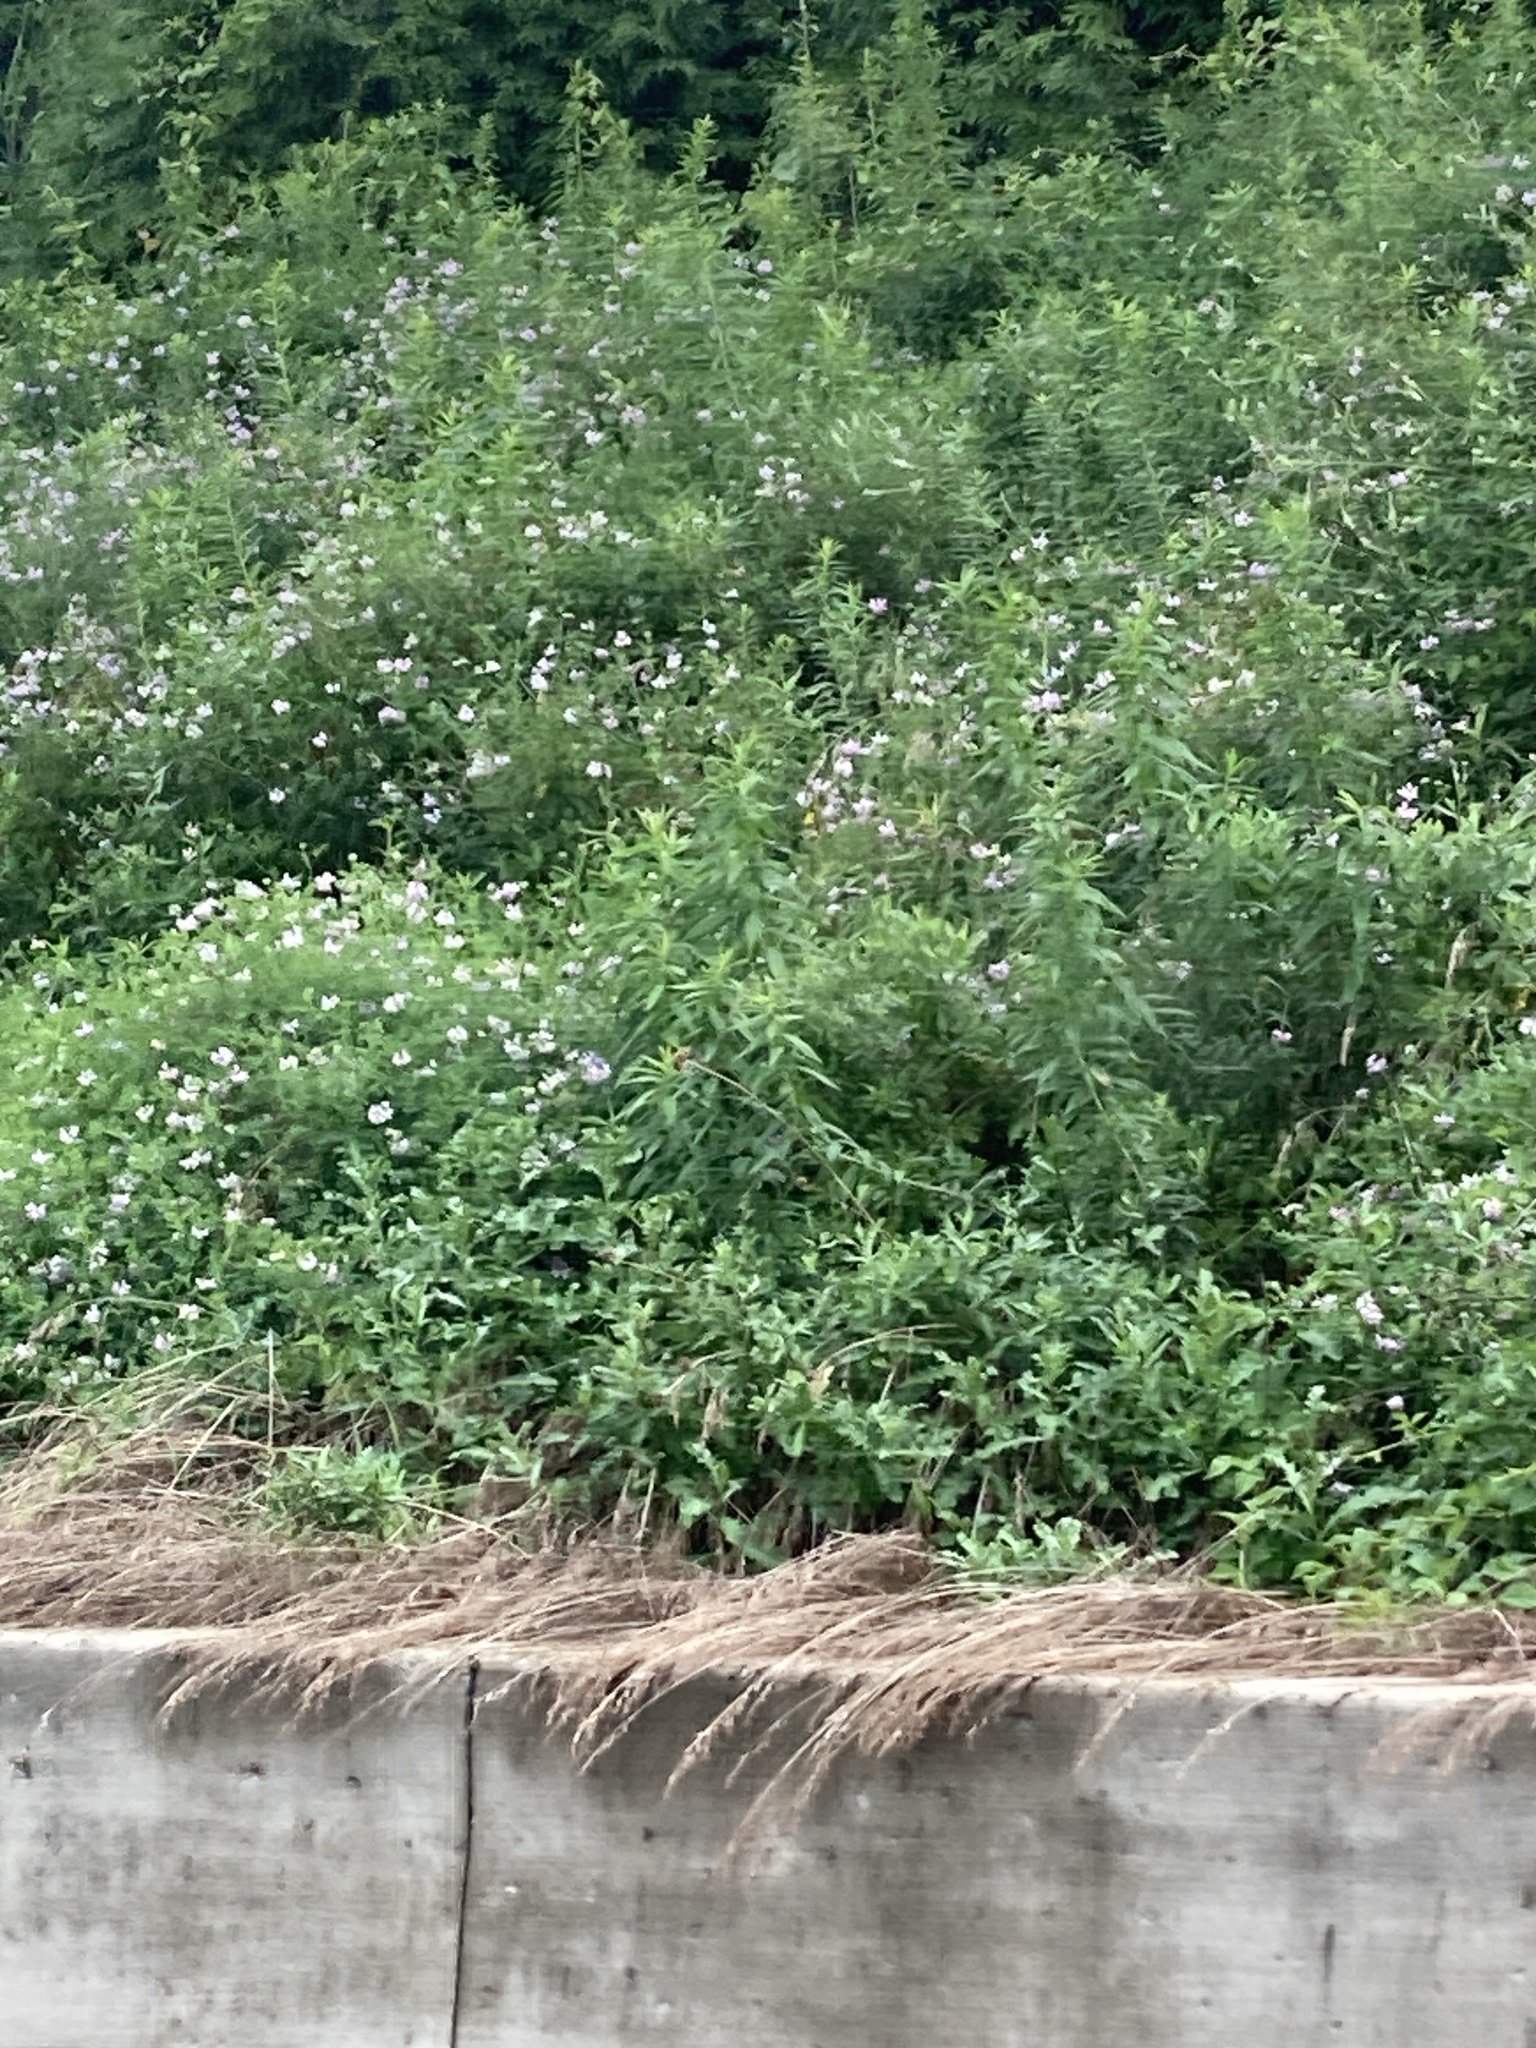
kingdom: Plantae
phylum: Tracheophyta
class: Magnoliopsida
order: Fabales
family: Fabaceae
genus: Coronilla
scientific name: Coronilla varia
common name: Crownvetch
